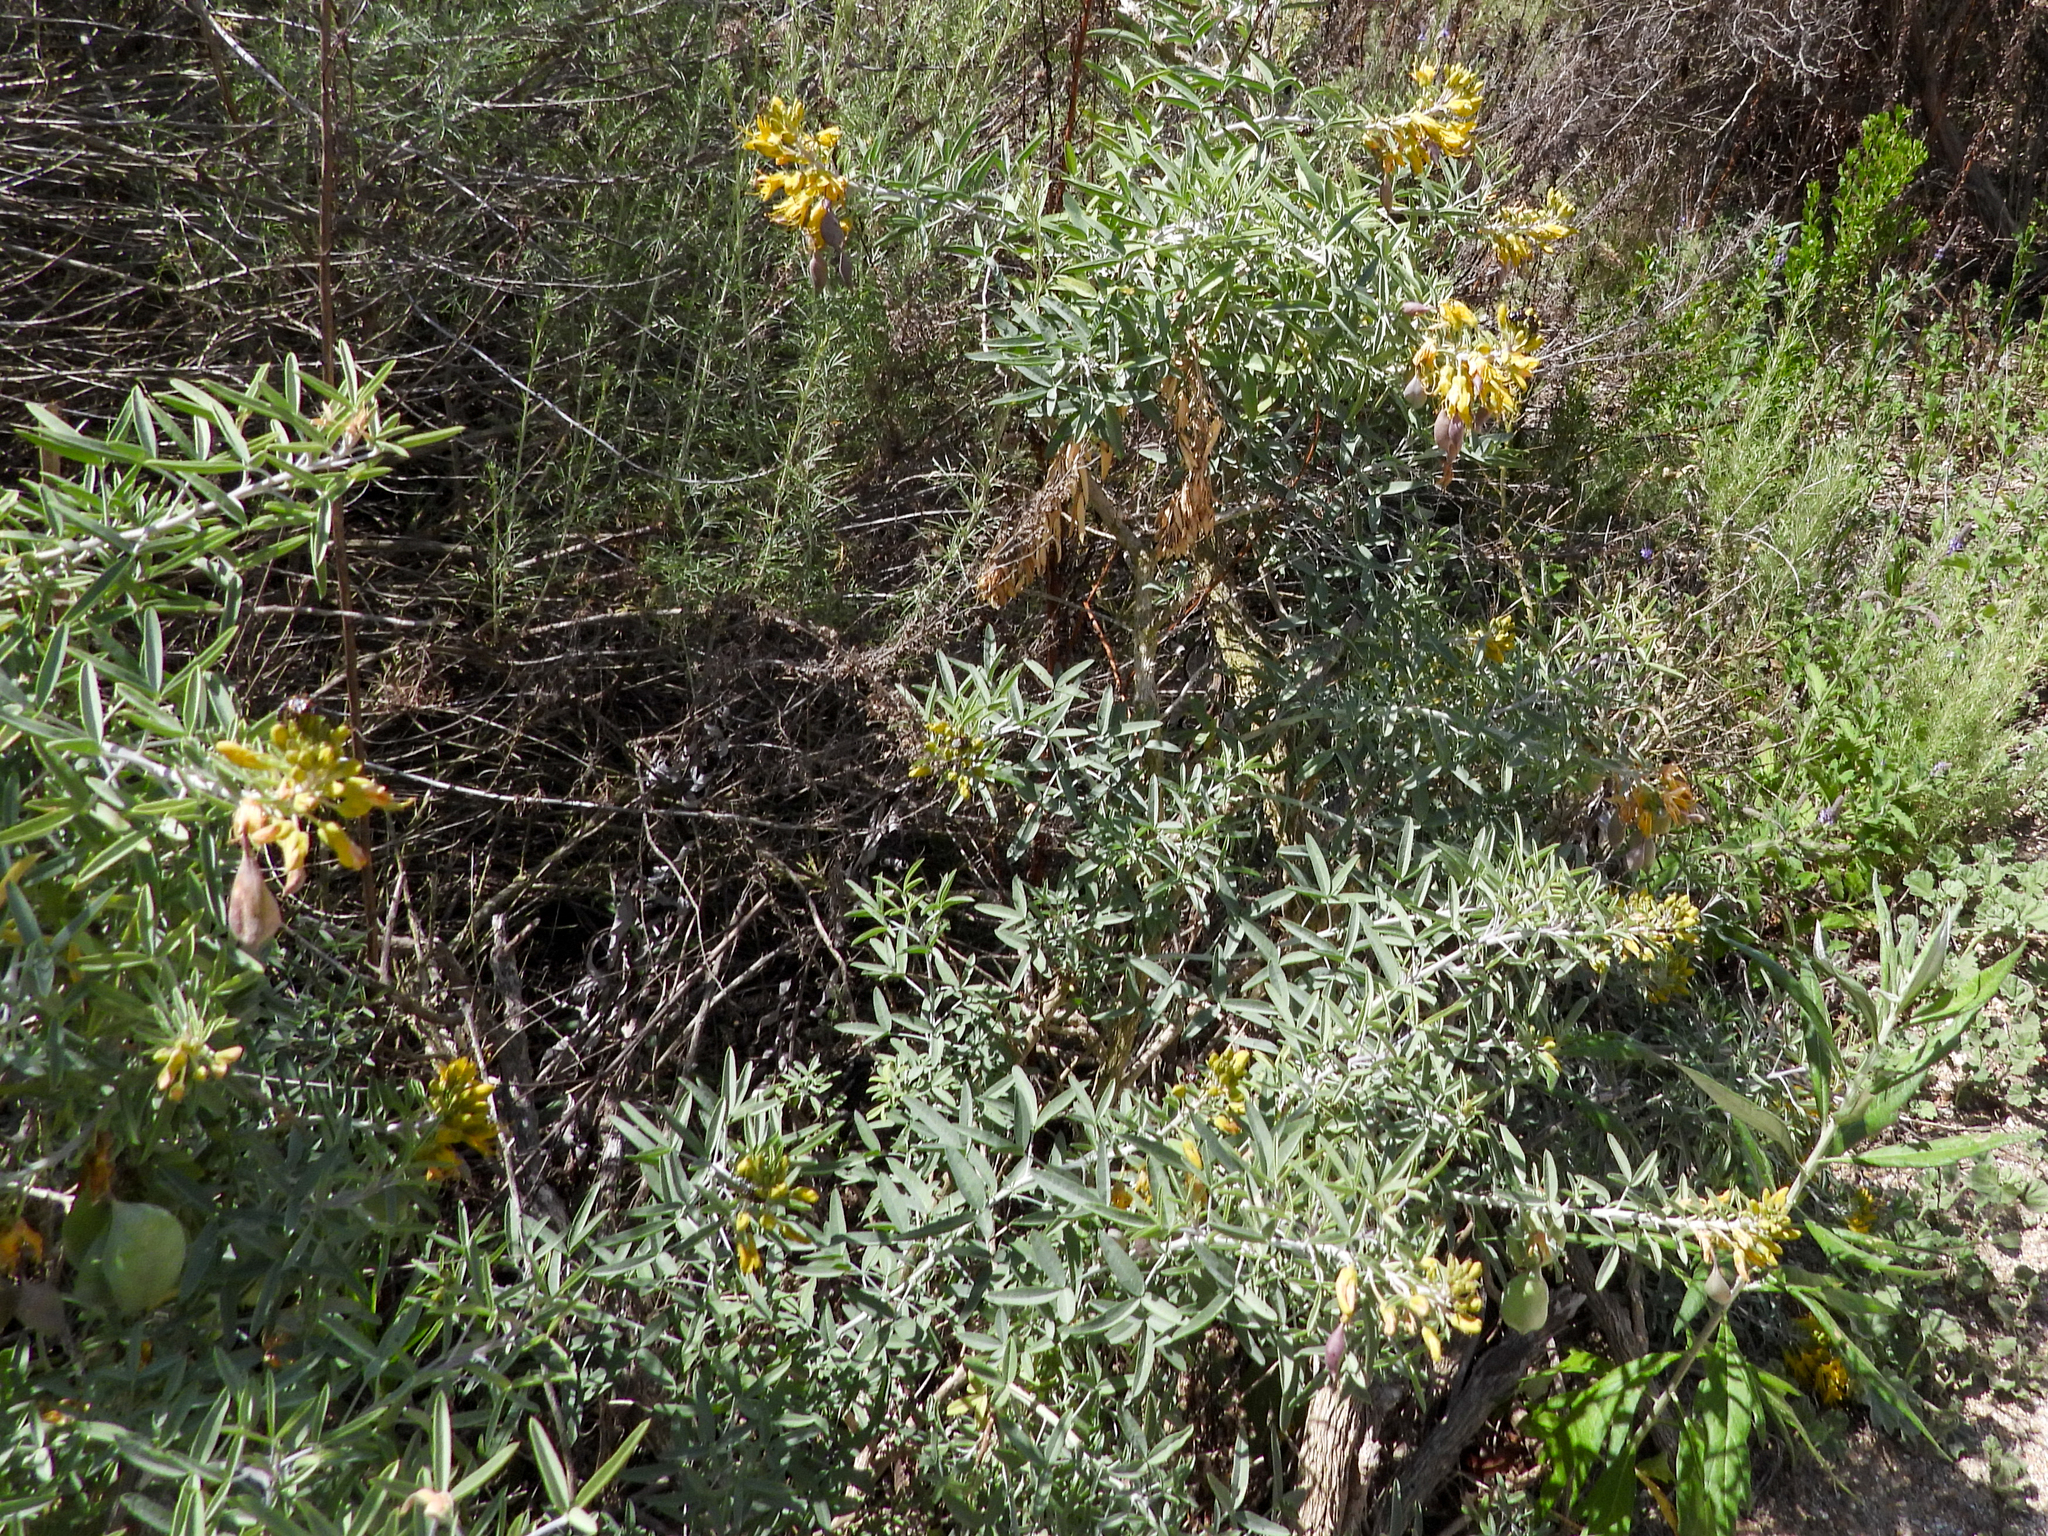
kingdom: Plantae
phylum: Tracheophyta
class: Magnoliopsida
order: Brassicales
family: Cleomaceae
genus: Cleomella
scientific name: Cleomella arborea
